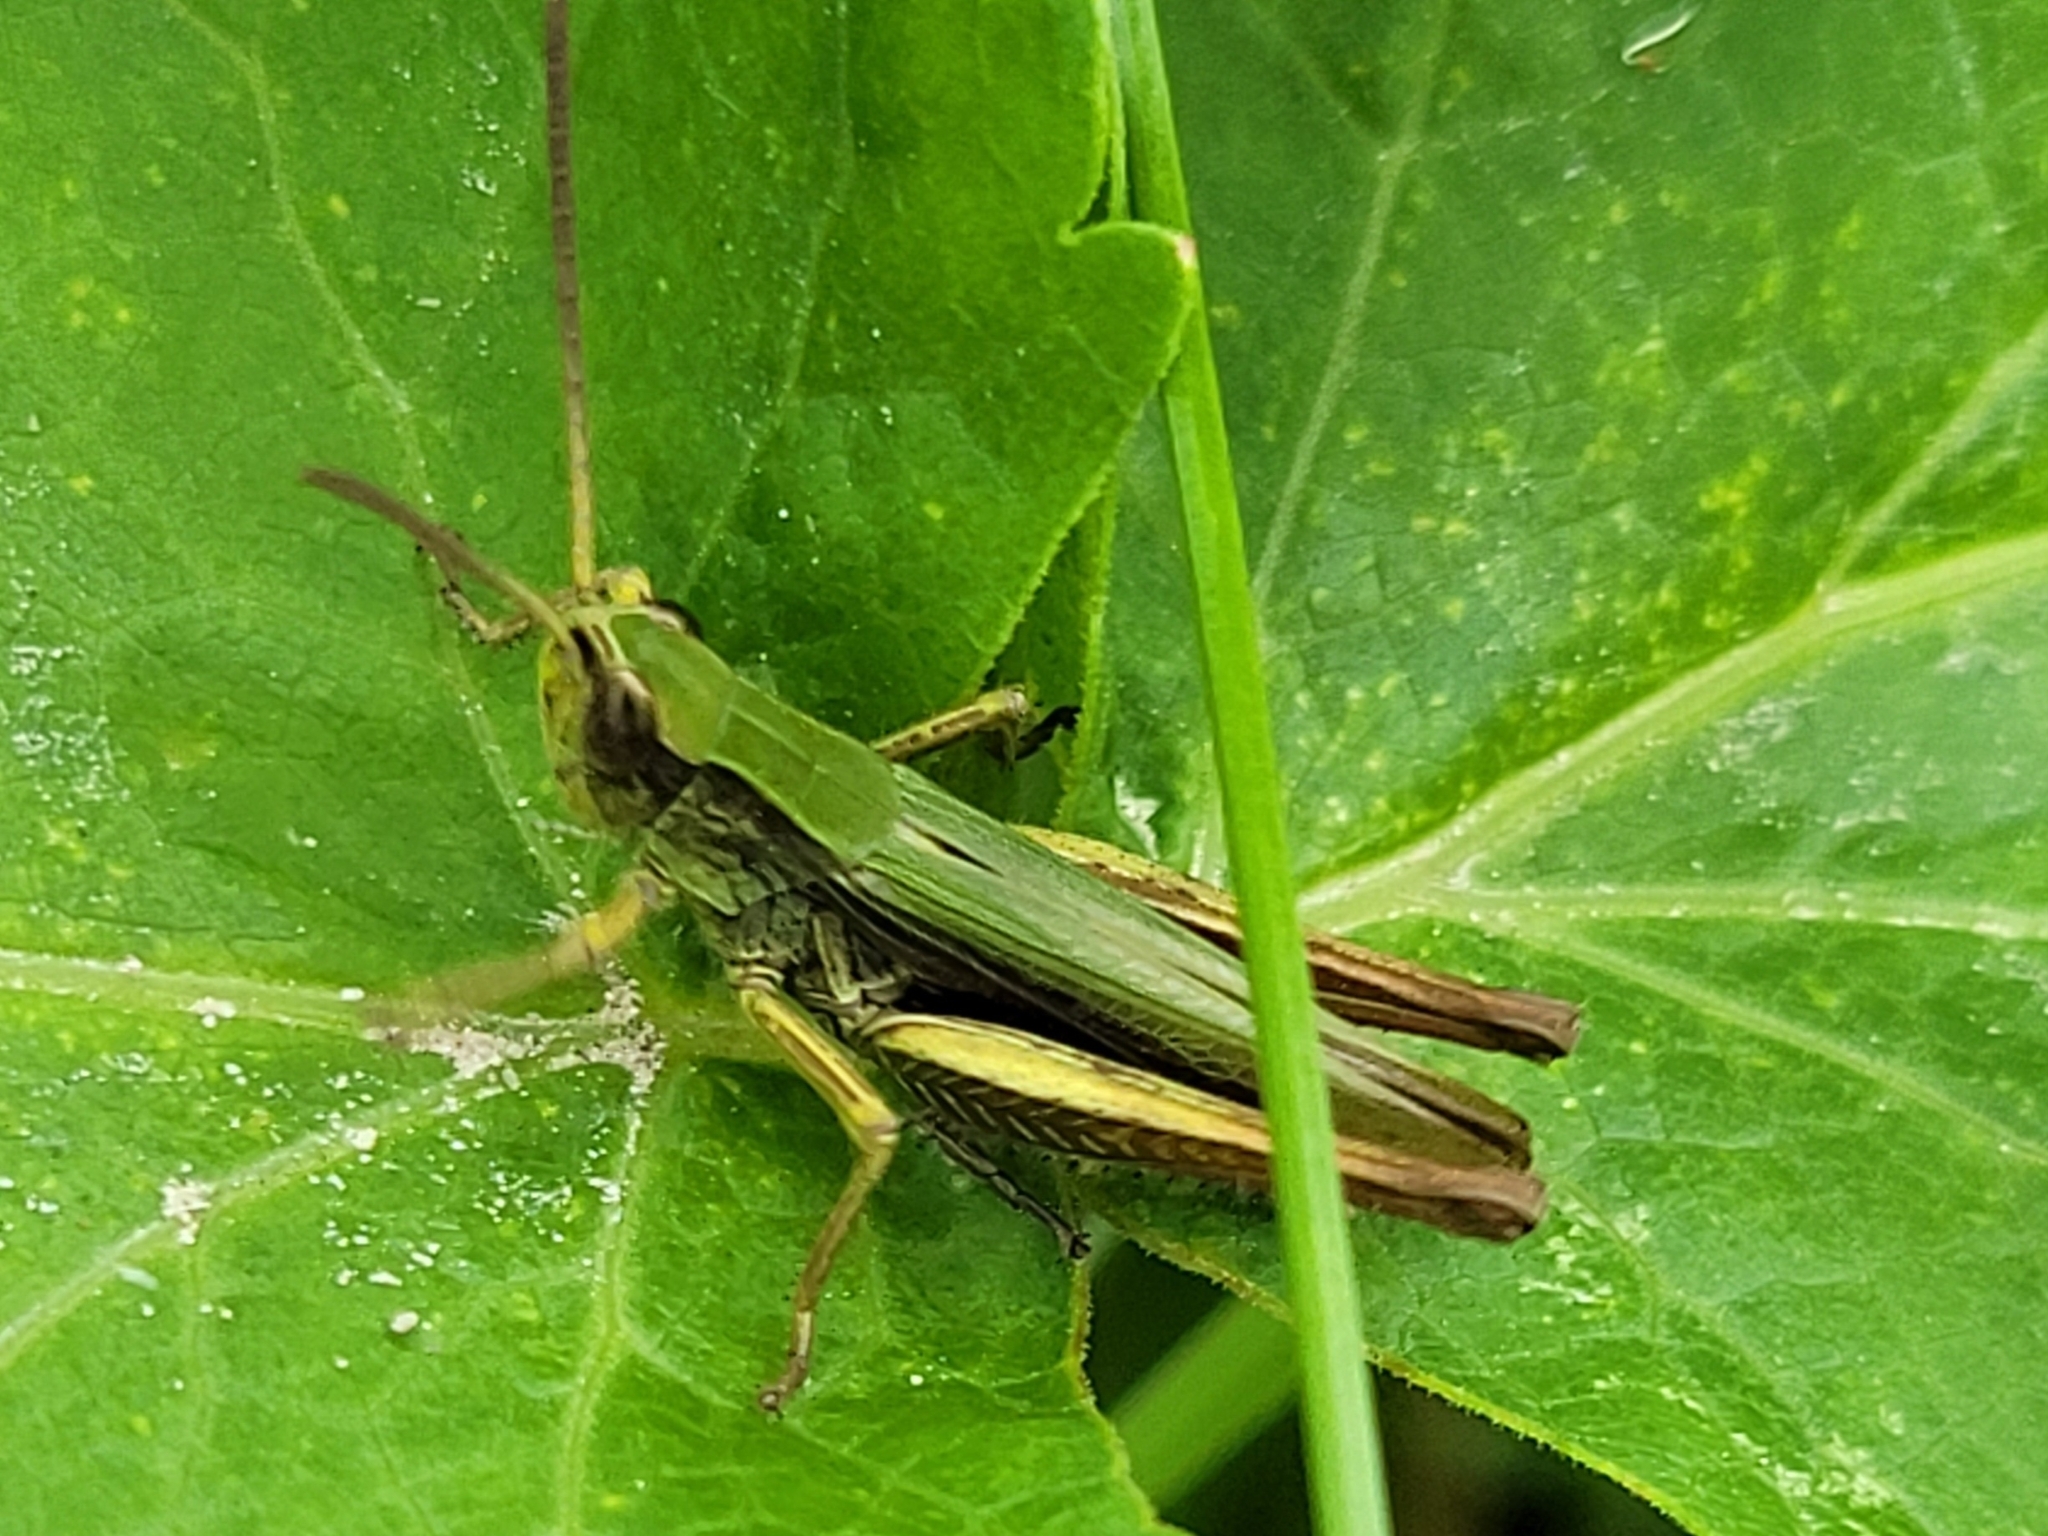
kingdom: Animalia
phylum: Arthropoda
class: Insecta
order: Orthoptera
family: Acrididae
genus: Chorthippus
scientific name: Chorthippus dorsatus
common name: Steppe grasshopper
